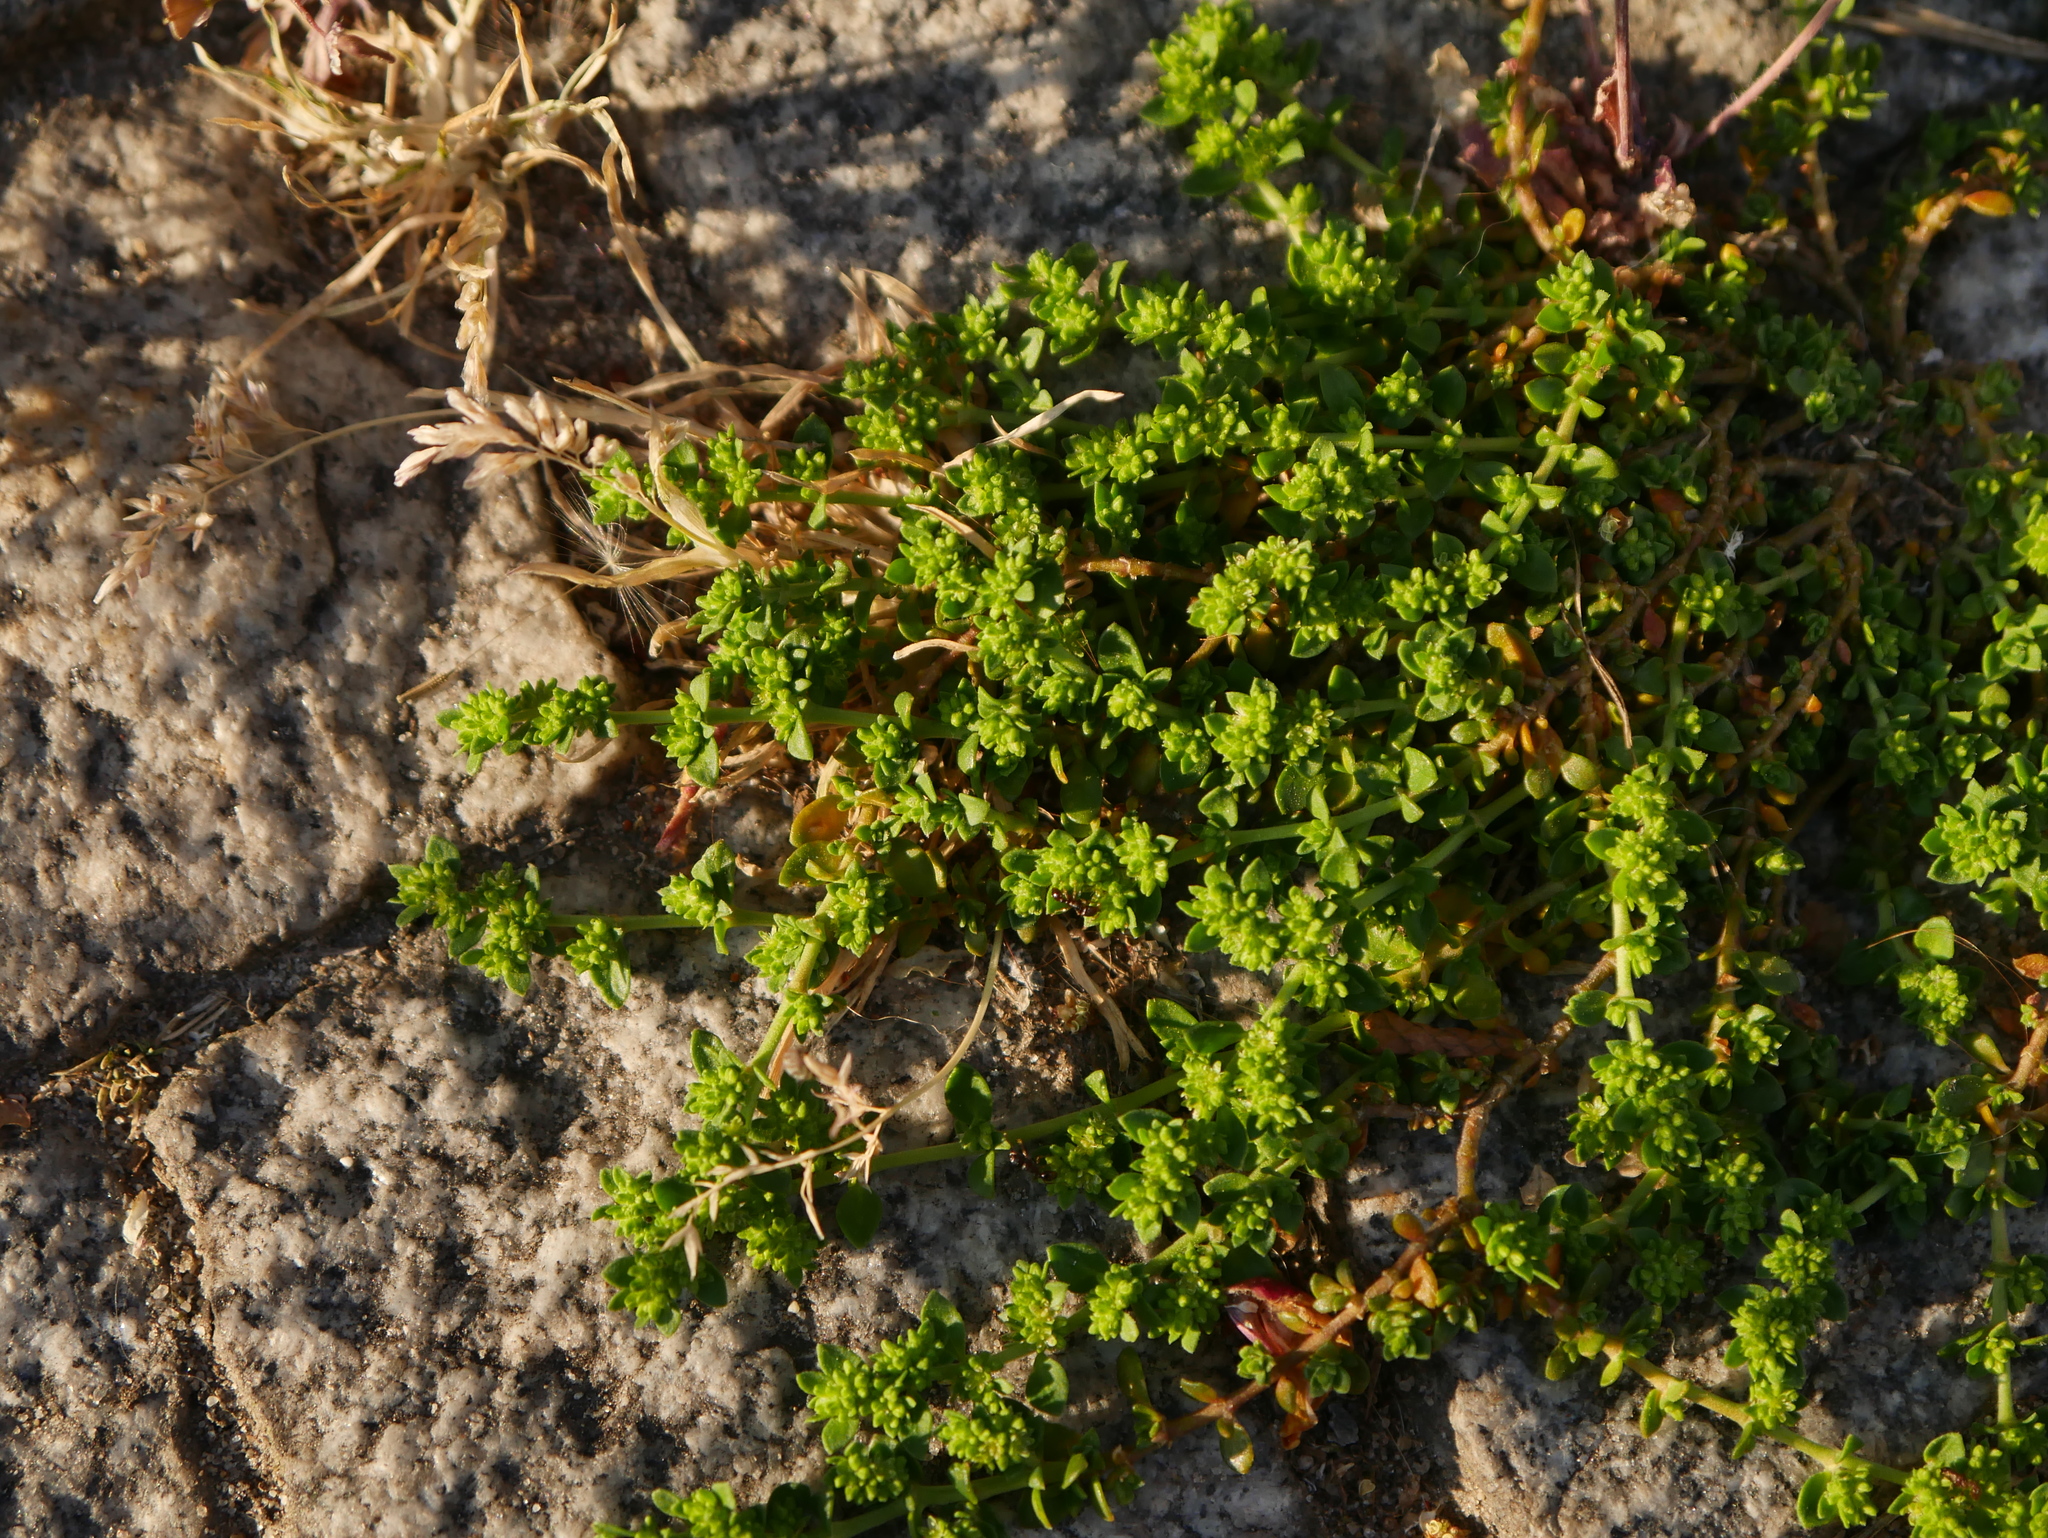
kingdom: Plantae
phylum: Tracheophyta
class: Magnoliopsida
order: Caryophyllales
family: Caryophyllaceae
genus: Herniaria
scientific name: Herniaria glabra
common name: Smooth rupturewort
